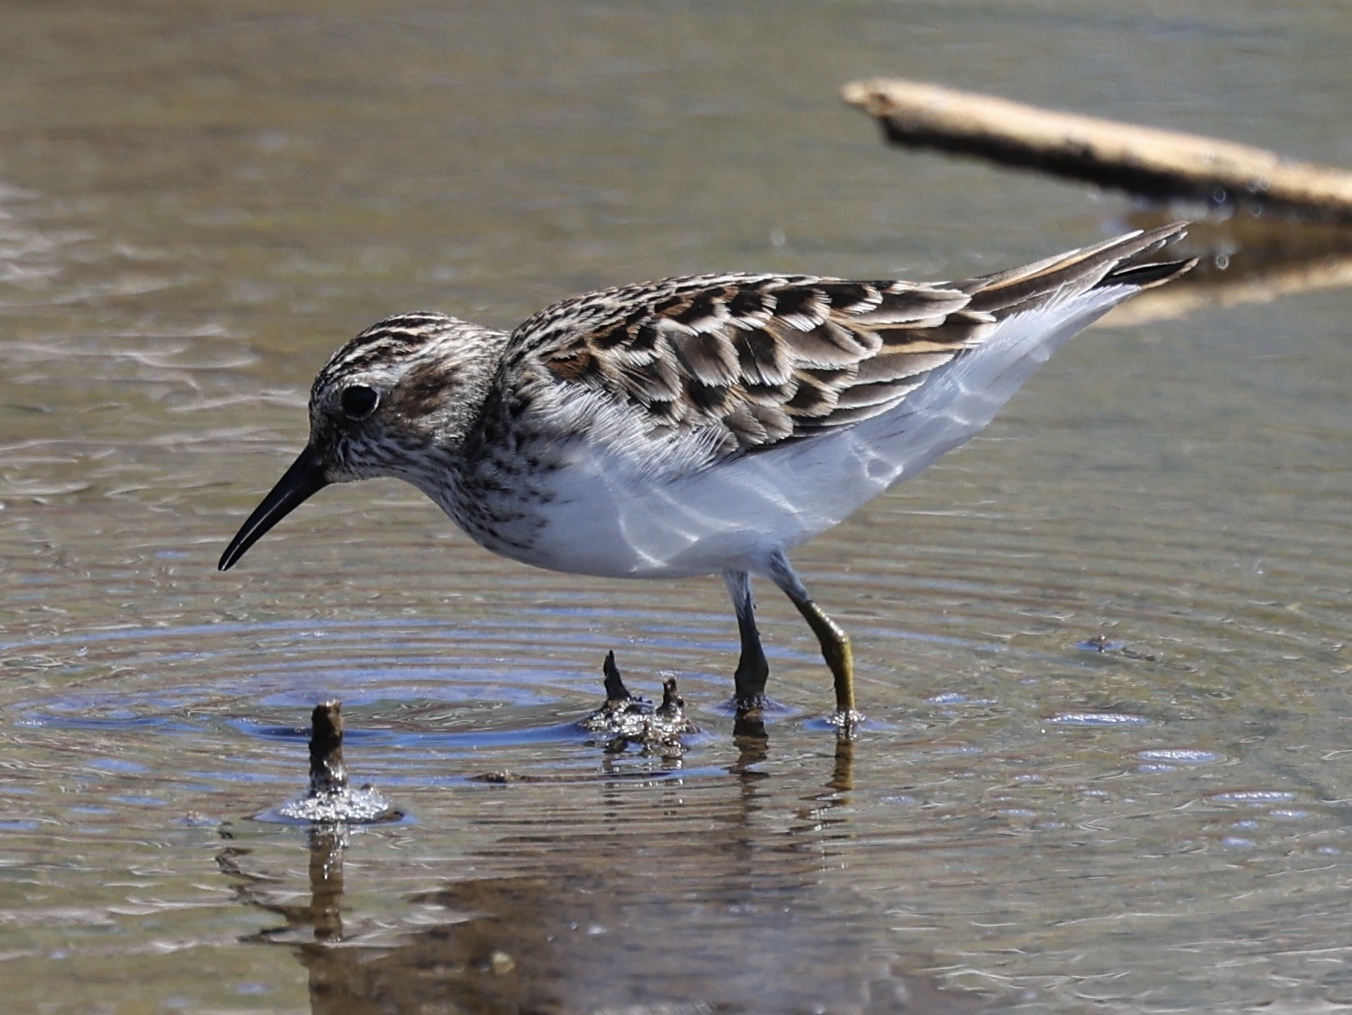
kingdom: Animalia
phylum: Chordata
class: Aves
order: Charadriiformes
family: Scolopacidae
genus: Calidris
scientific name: Calidris minutilla
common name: Least sandpiper
